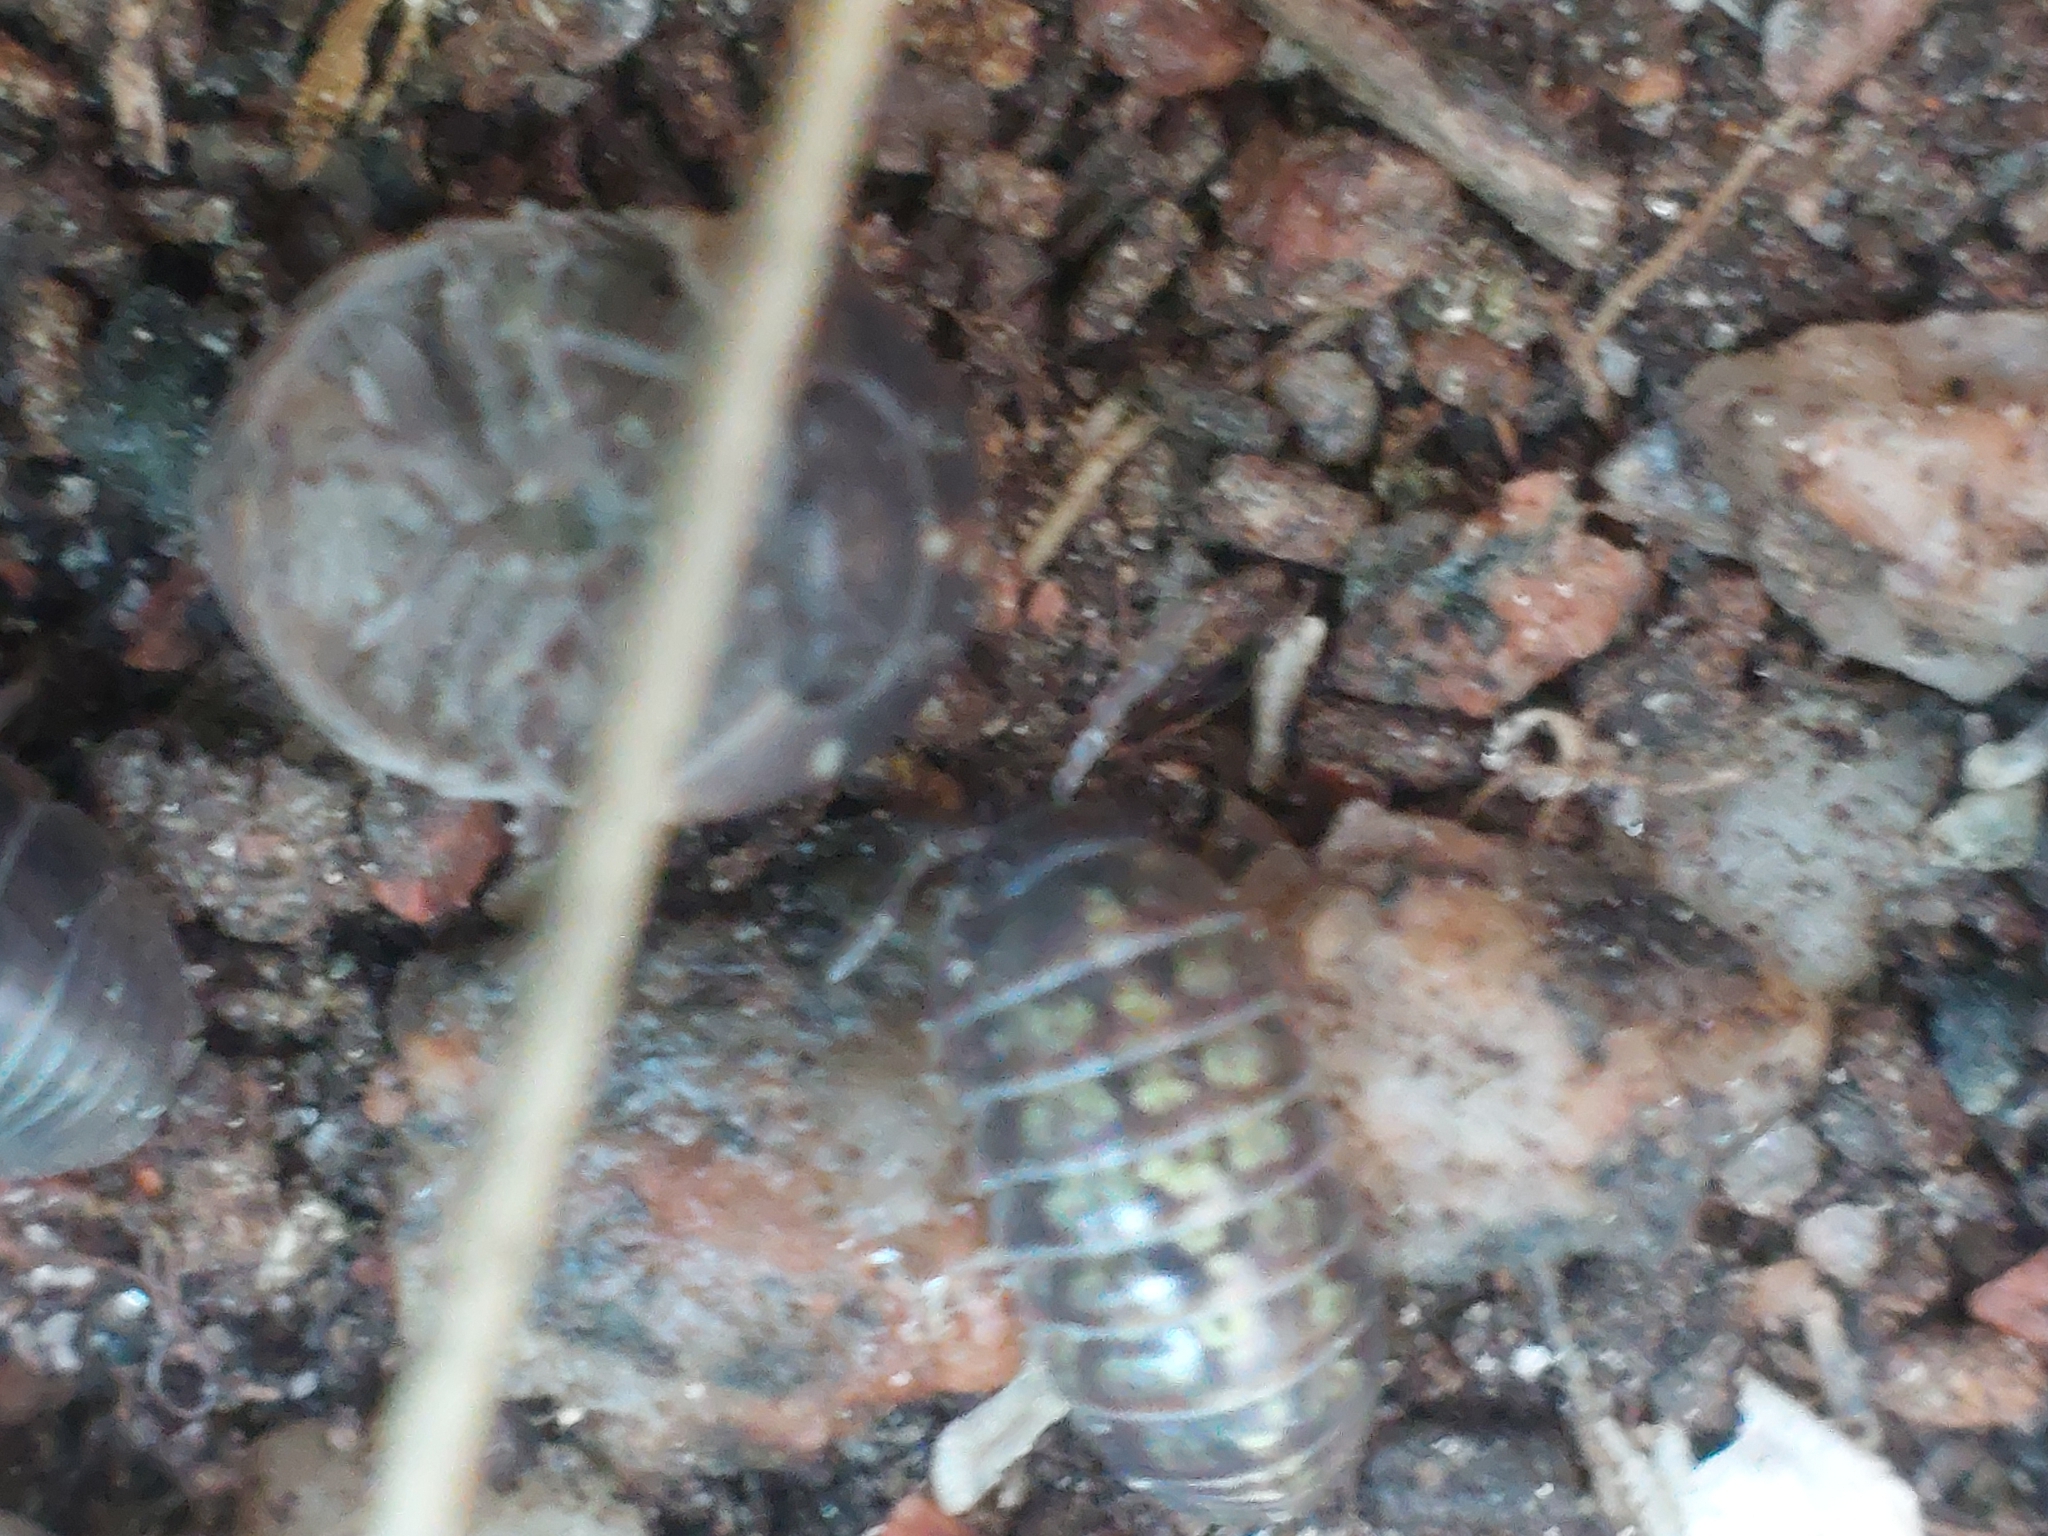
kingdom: Animalia
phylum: Arthropoda
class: Malacostraca
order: Isopoda
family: Armadillidiidae
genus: Armadillidium
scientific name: Armadillidium vulgare
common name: Common pill woodlouse
